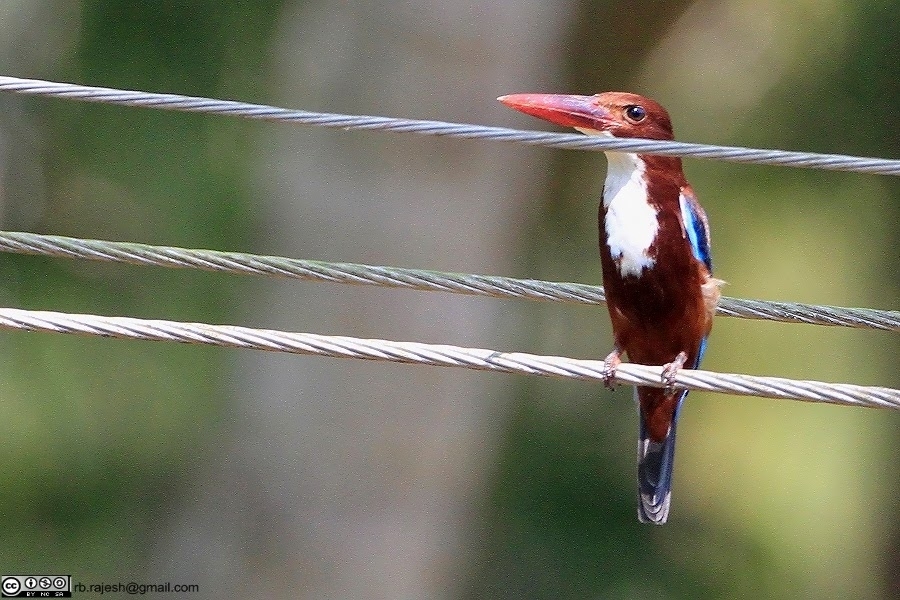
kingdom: Animalia
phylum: Chordata
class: Aves
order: Coraciiformes
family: Alcedinidae
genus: Halcyon
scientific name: Halcyon smyrnensis
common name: White-throated kingfisher
